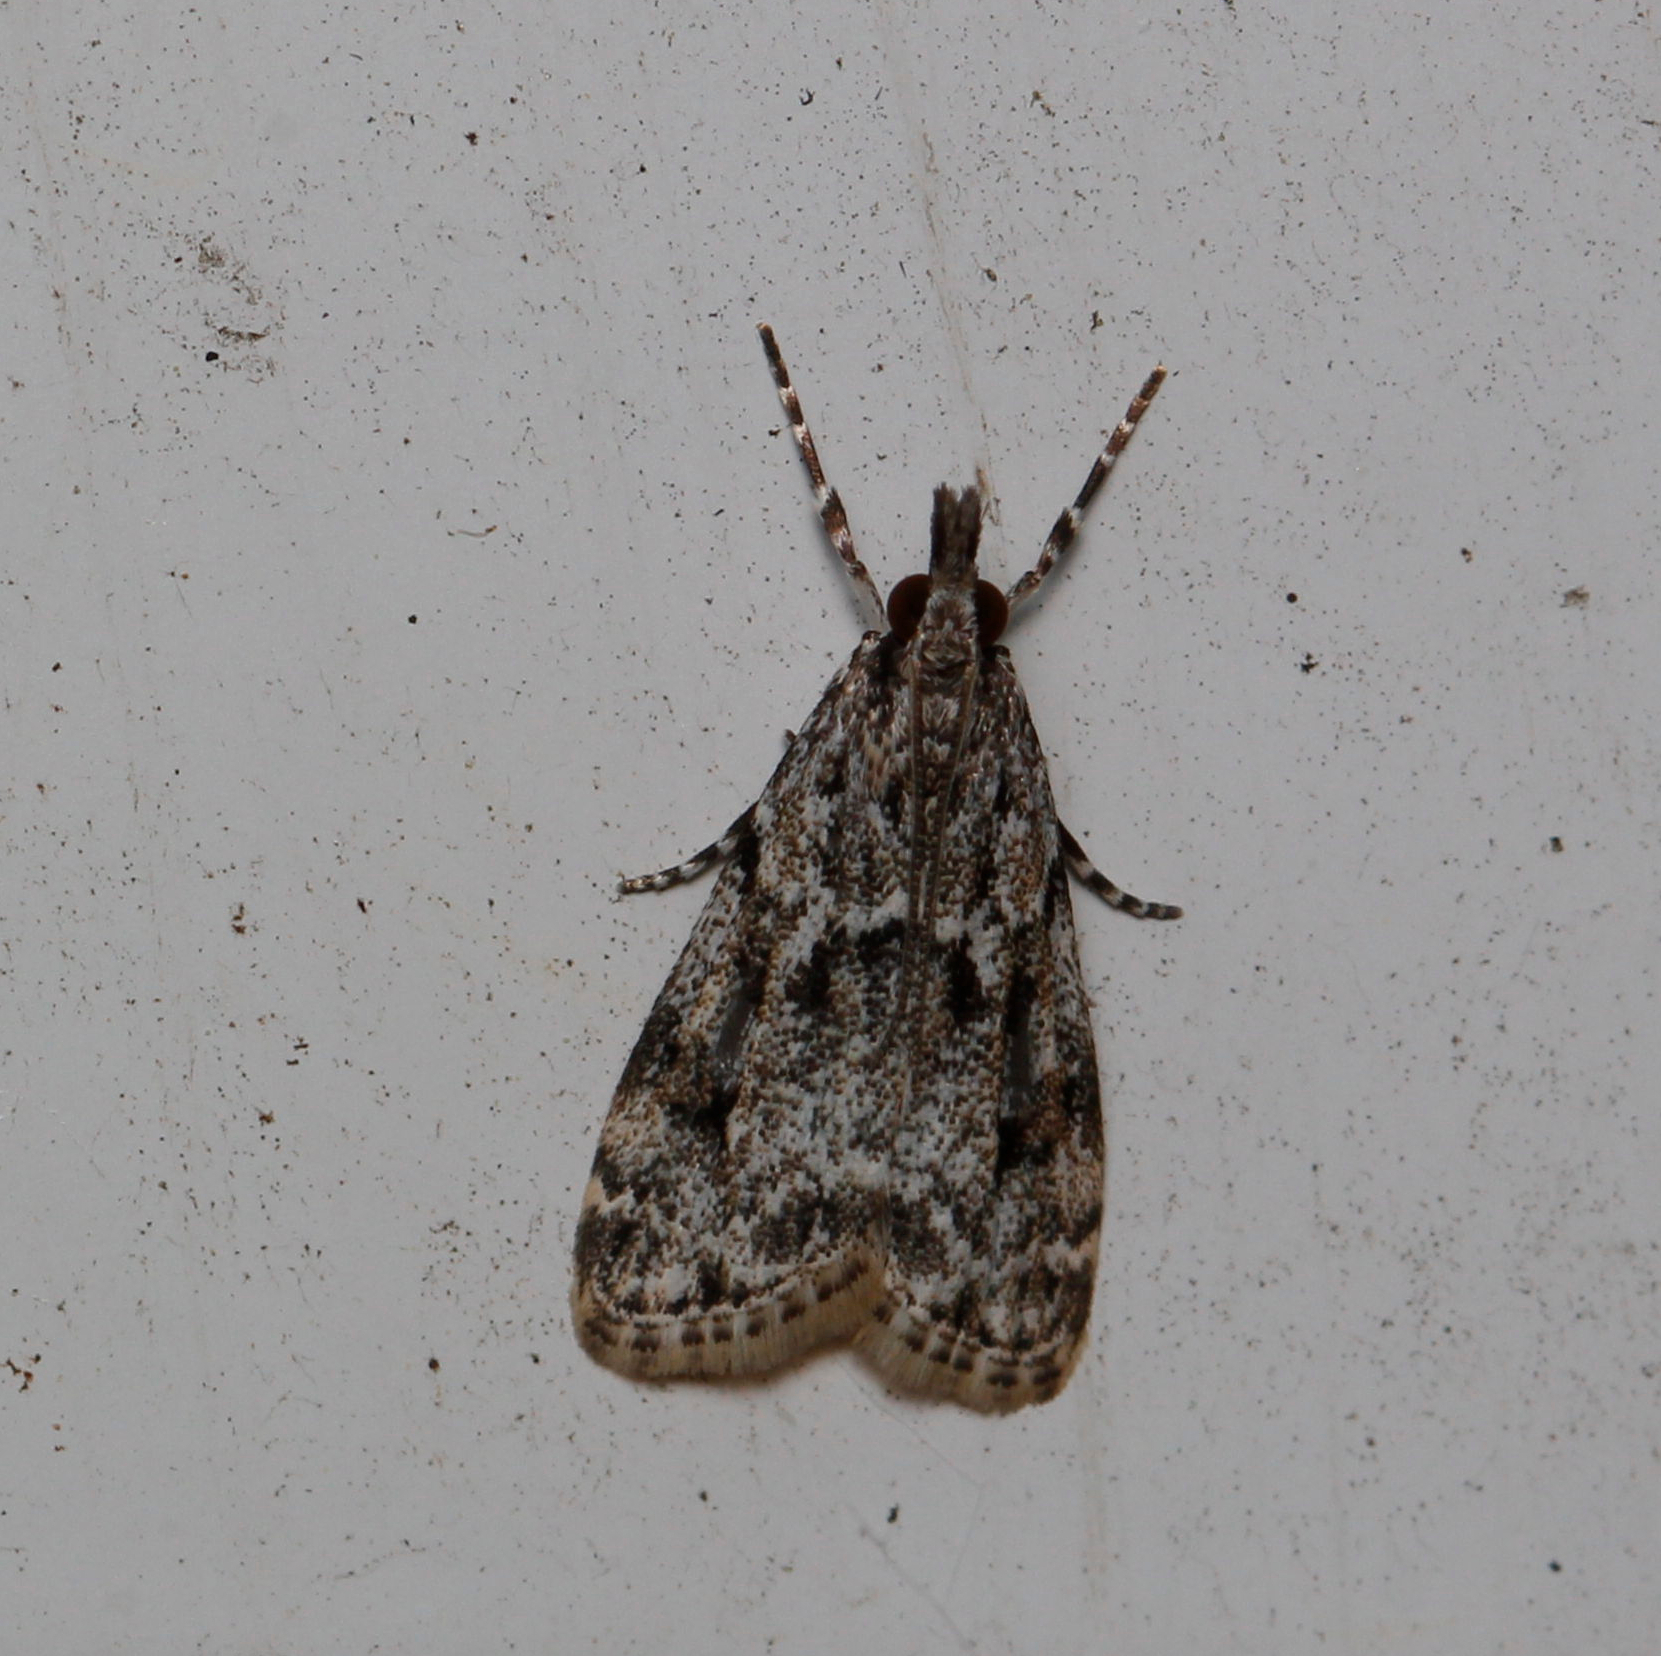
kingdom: Animalia
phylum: Arthropoda
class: Insecta
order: Lepidoptera
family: Crambidae
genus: Eudonia
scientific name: Eudonia heterosalis
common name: Mcdunnough's eudonia
